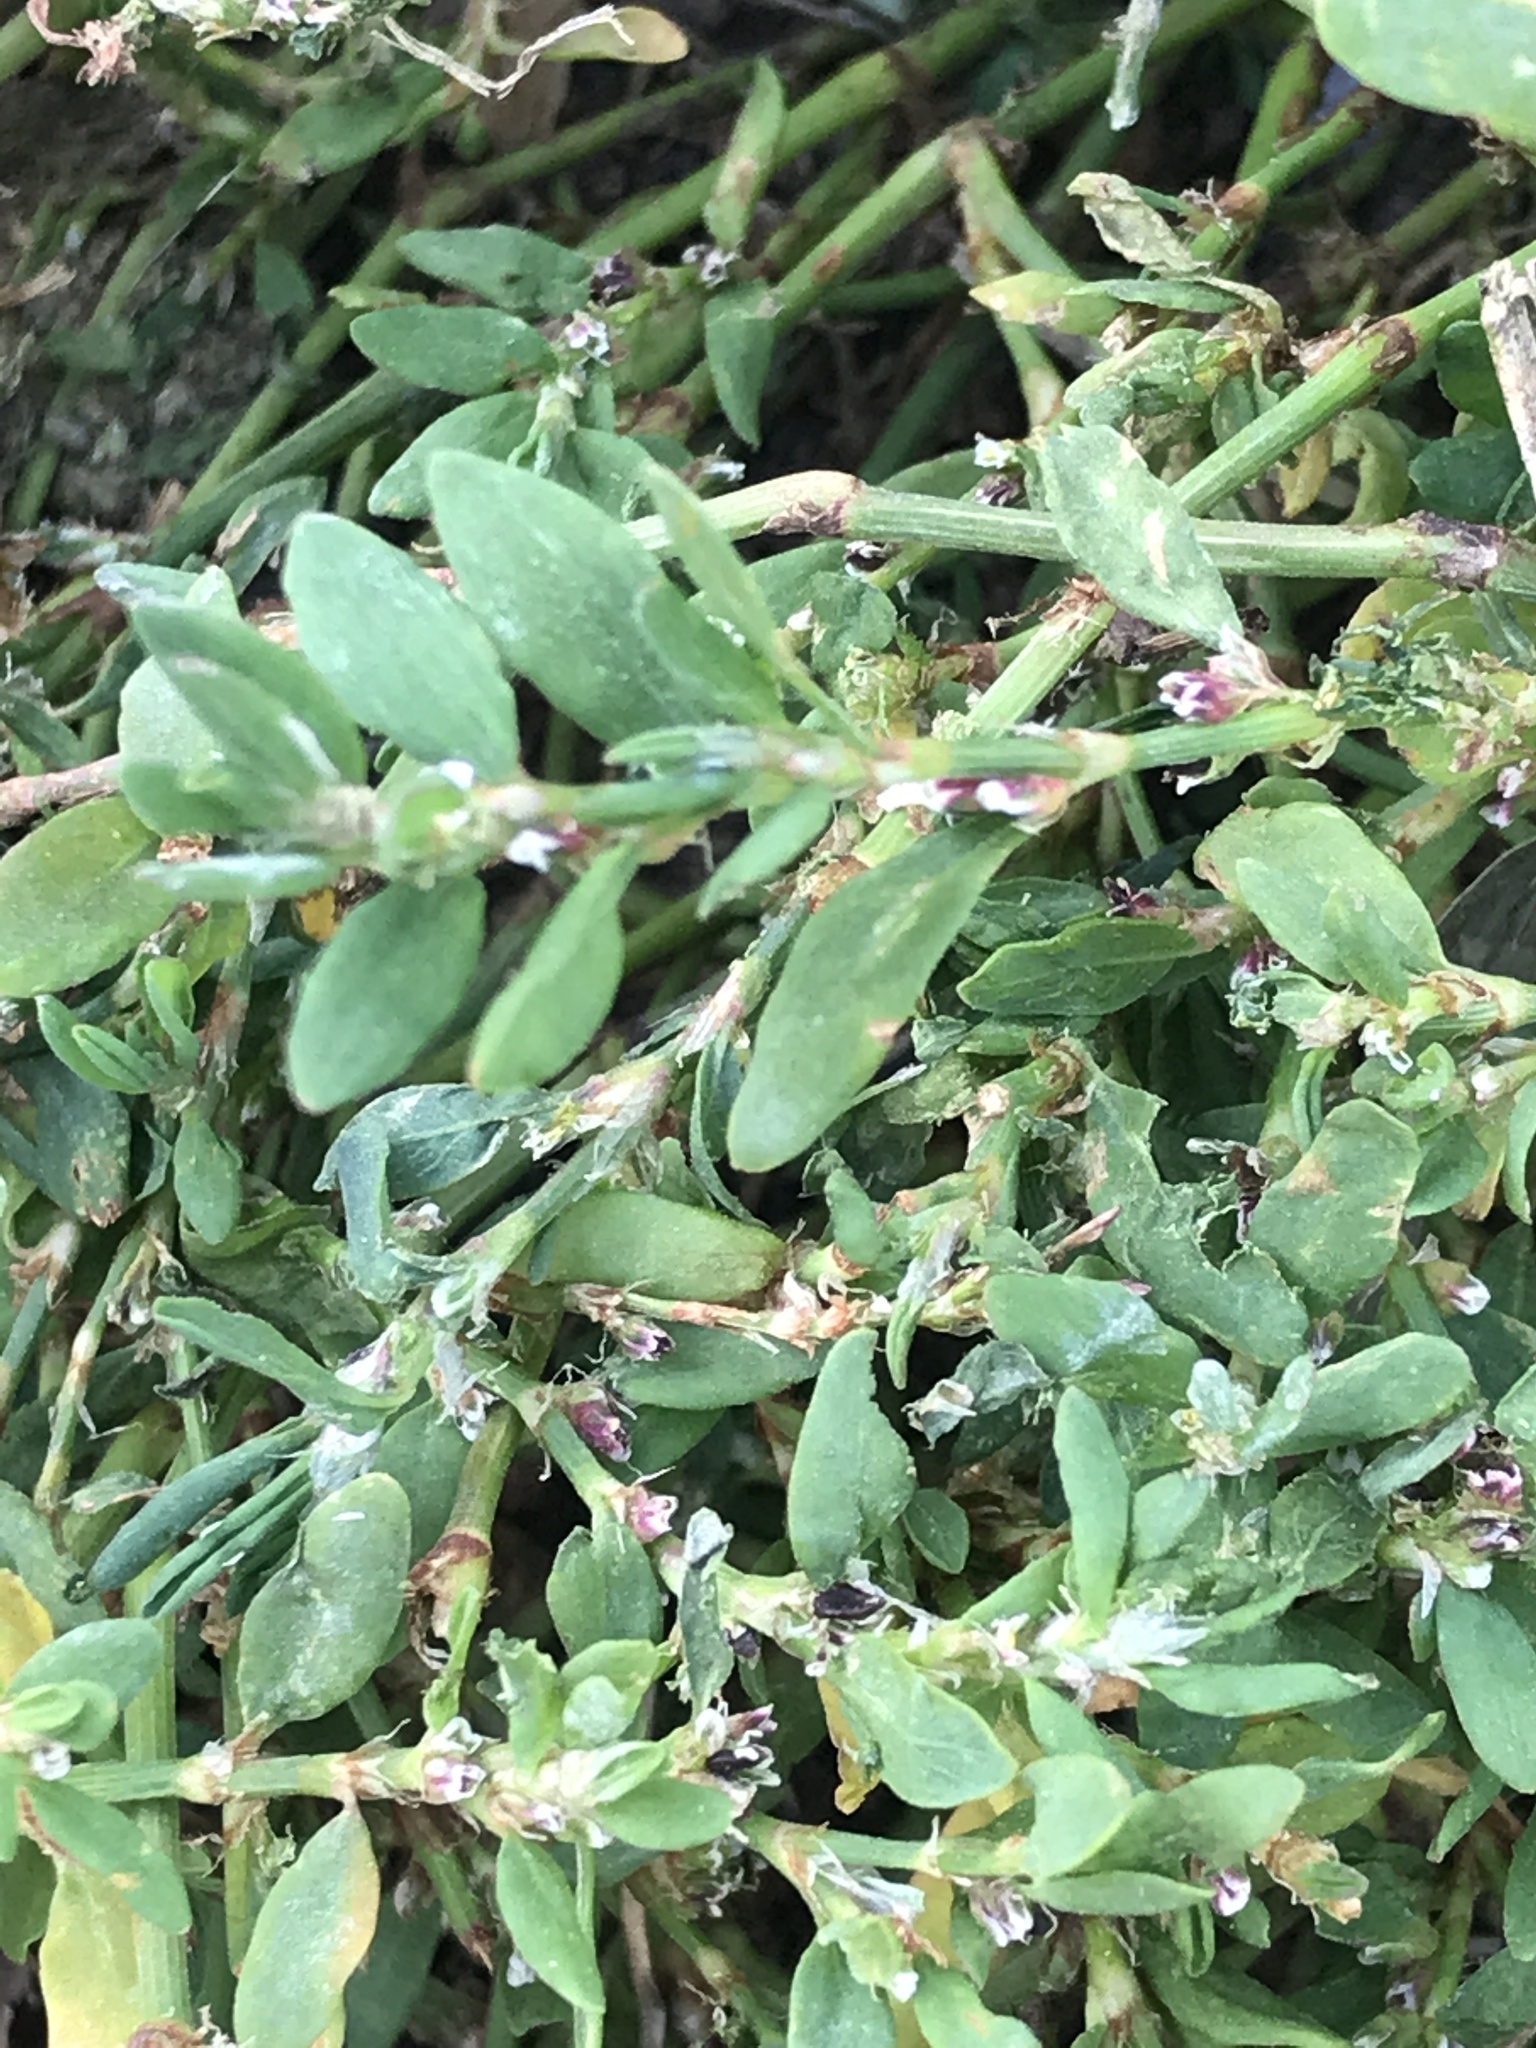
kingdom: Plantae
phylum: Tracheophyta
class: Magnoliopsida
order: Caryophyllales
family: Polygonaceae
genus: Polygonum
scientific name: Polygonum aviculare
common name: Prostrate knotweed
